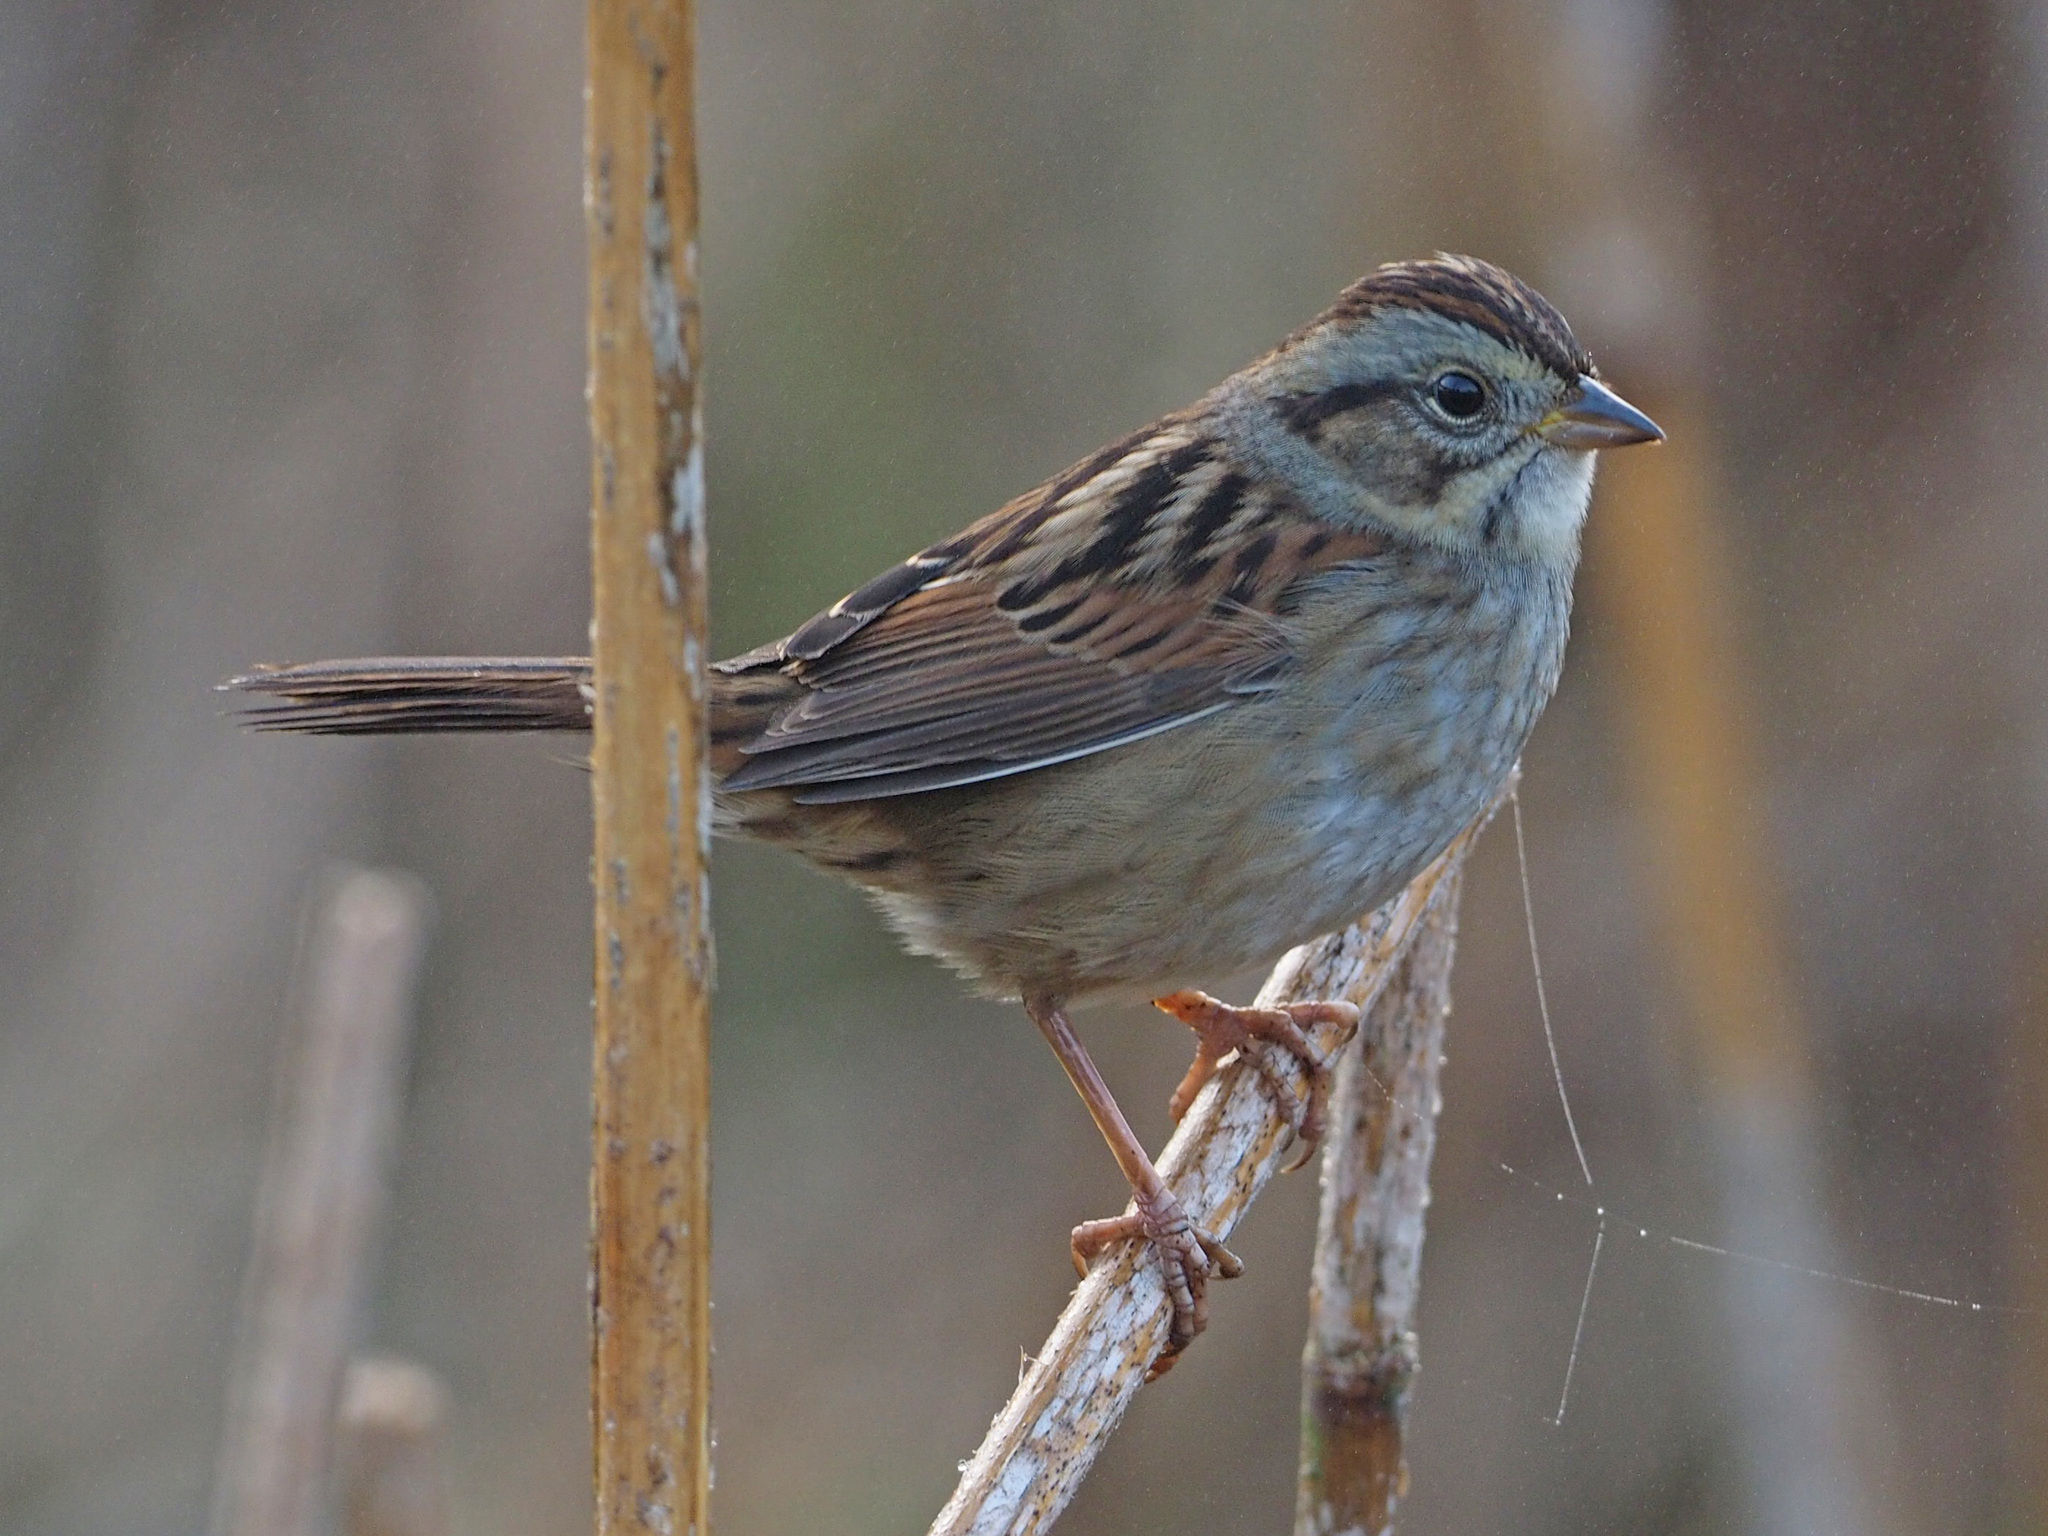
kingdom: Animalia
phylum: Chordata
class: Aves
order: Passeriformes
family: Passerellidae
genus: Melospiza
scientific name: Melospiza georgiana
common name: Swamp sparrow
